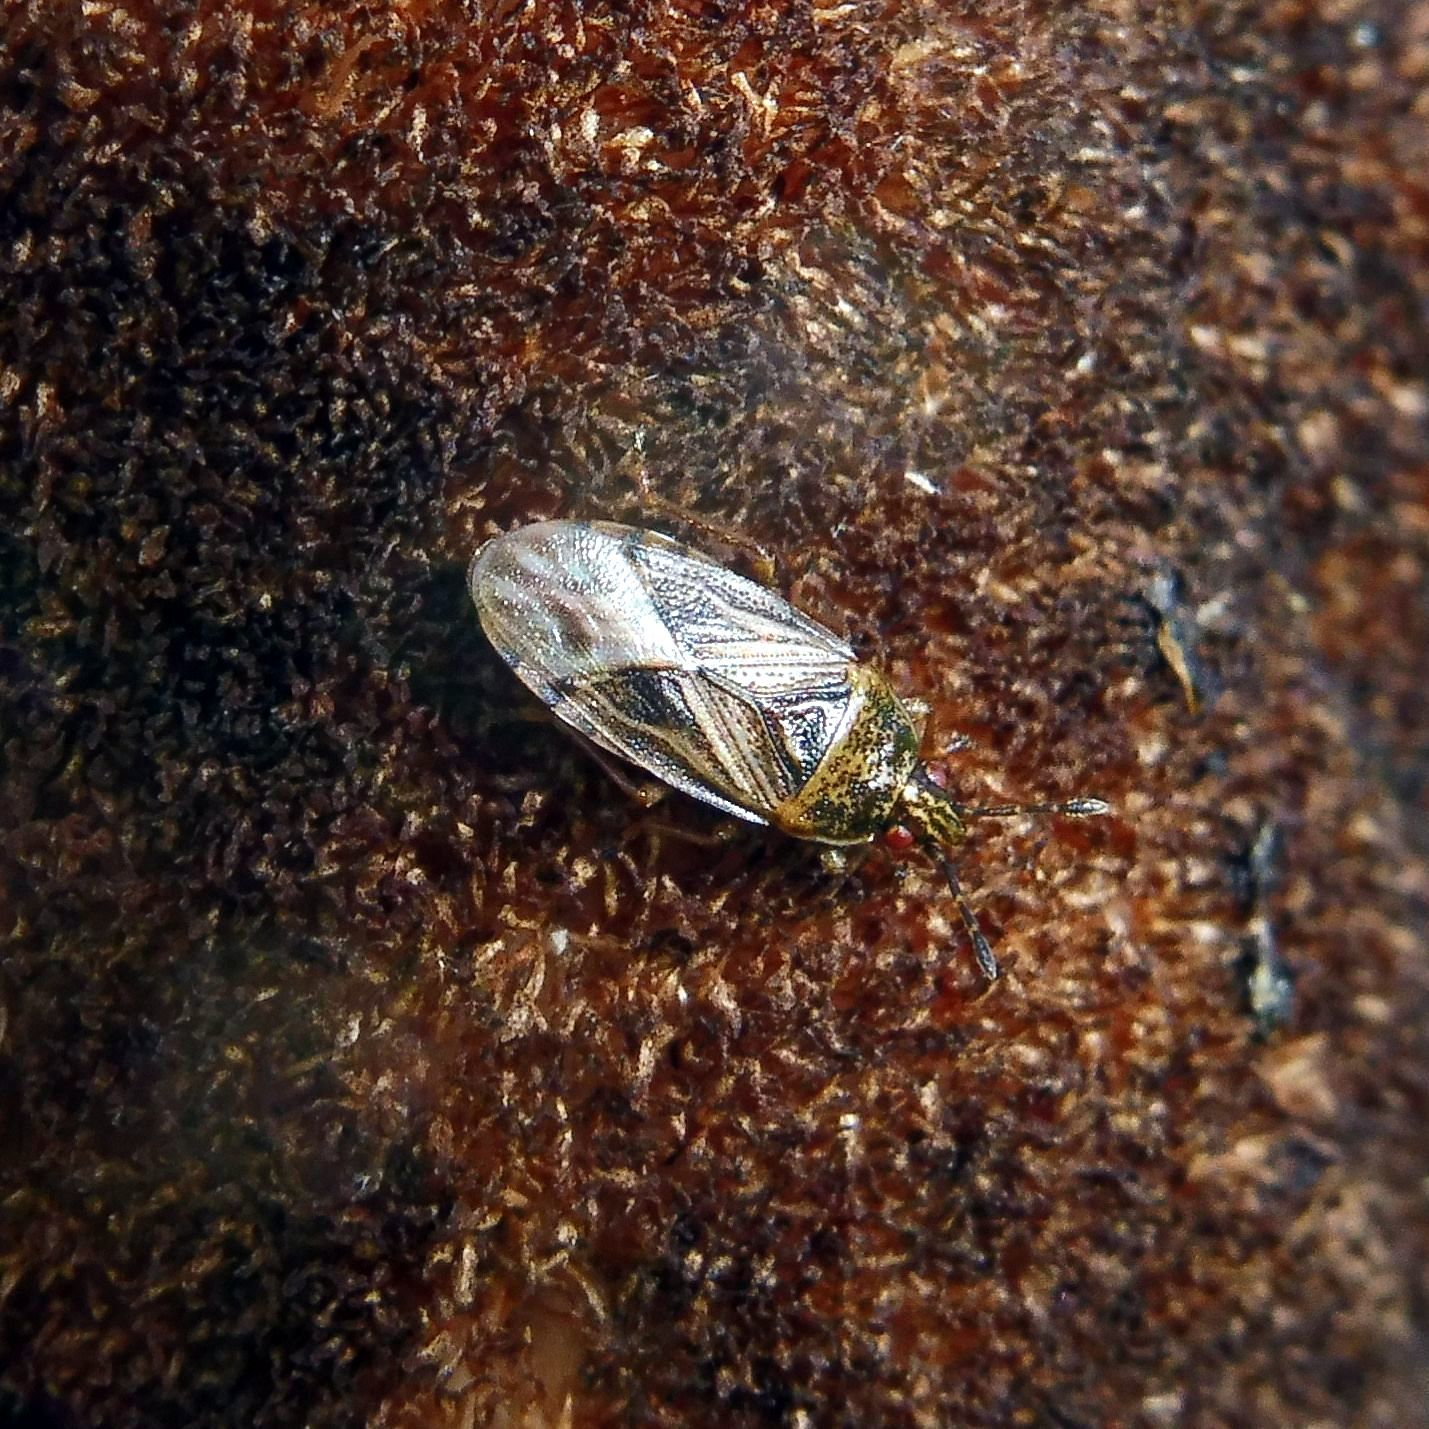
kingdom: Animalia
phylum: Arthropoda
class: Insecta
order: Hemiptera
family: Artheneidae
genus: Chilacis
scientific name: Chilacis typhae
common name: Cattail bug
